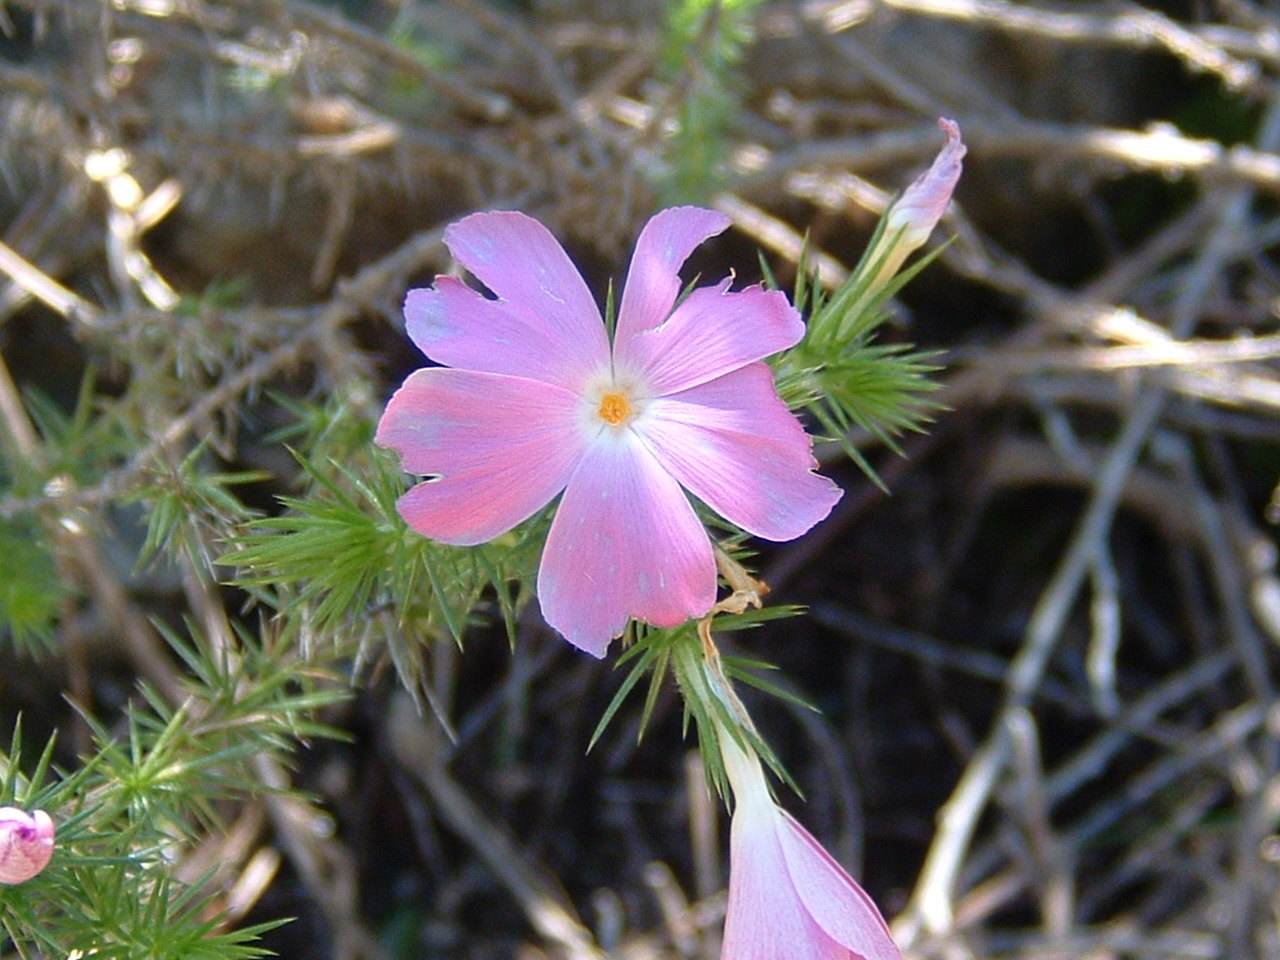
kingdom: Plantae
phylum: Tracheophyta
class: Magnoliopsida
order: Ericales
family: Polemoniaceae
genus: Linanthus
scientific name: Linanthus californicus
